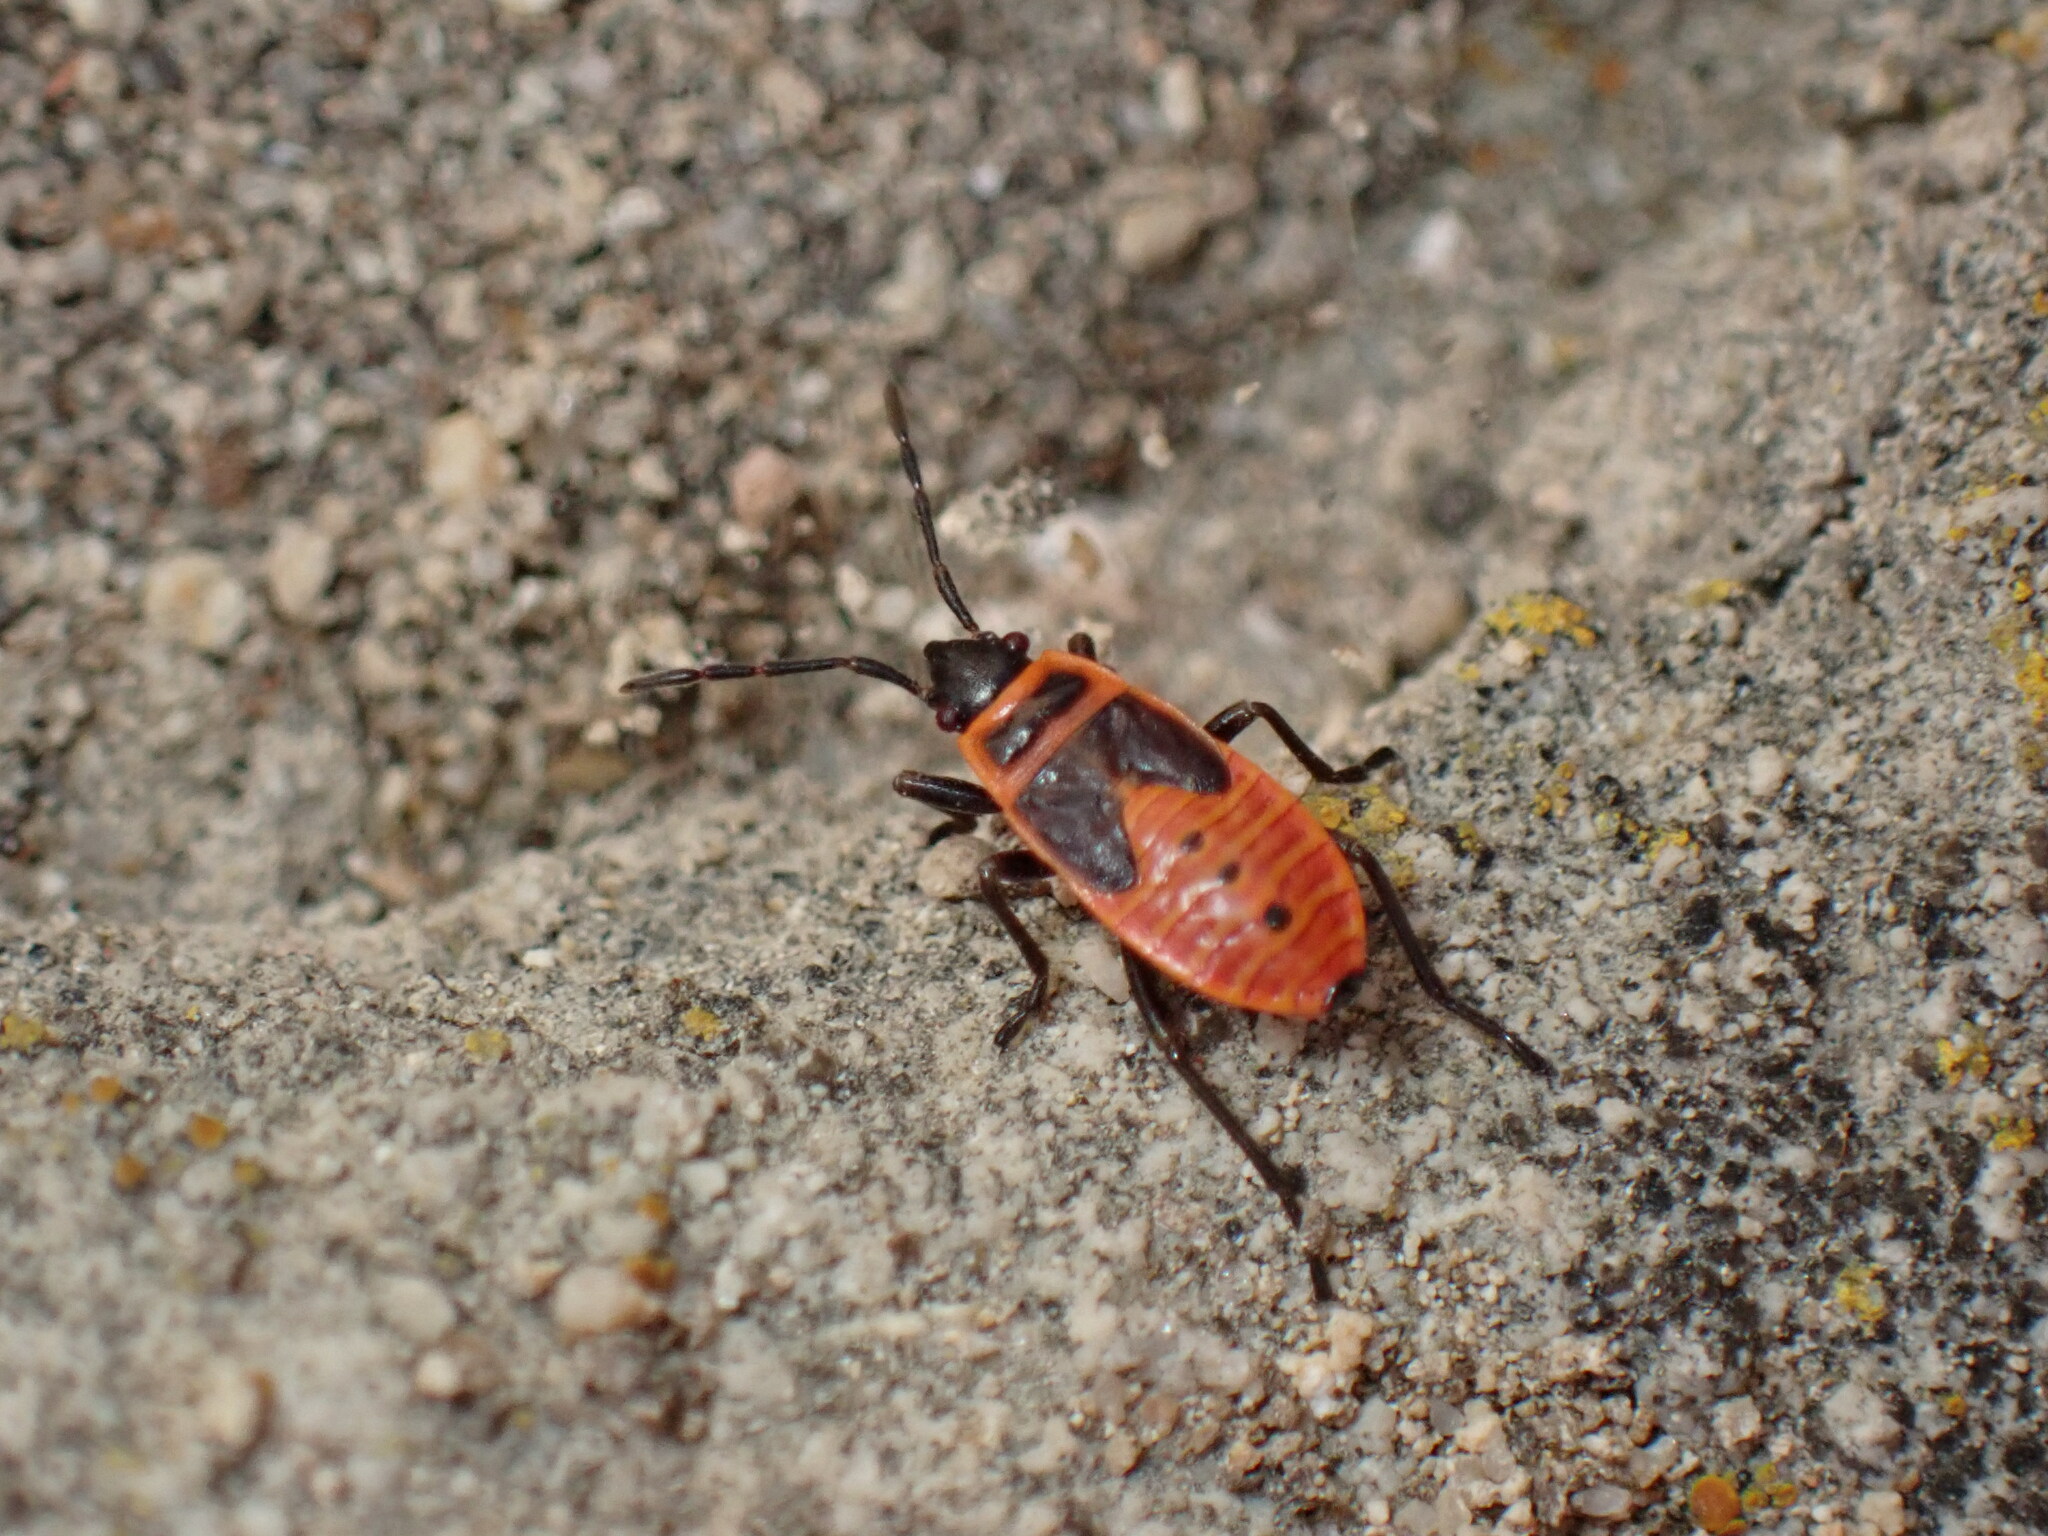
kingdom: Animalia
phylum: Arthropoda
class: Insecta
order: Hemiptera
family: Pyrrhocoridae
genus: Pyrrhocoris
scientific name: Pyrrhocoris apterus
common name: Firebug
